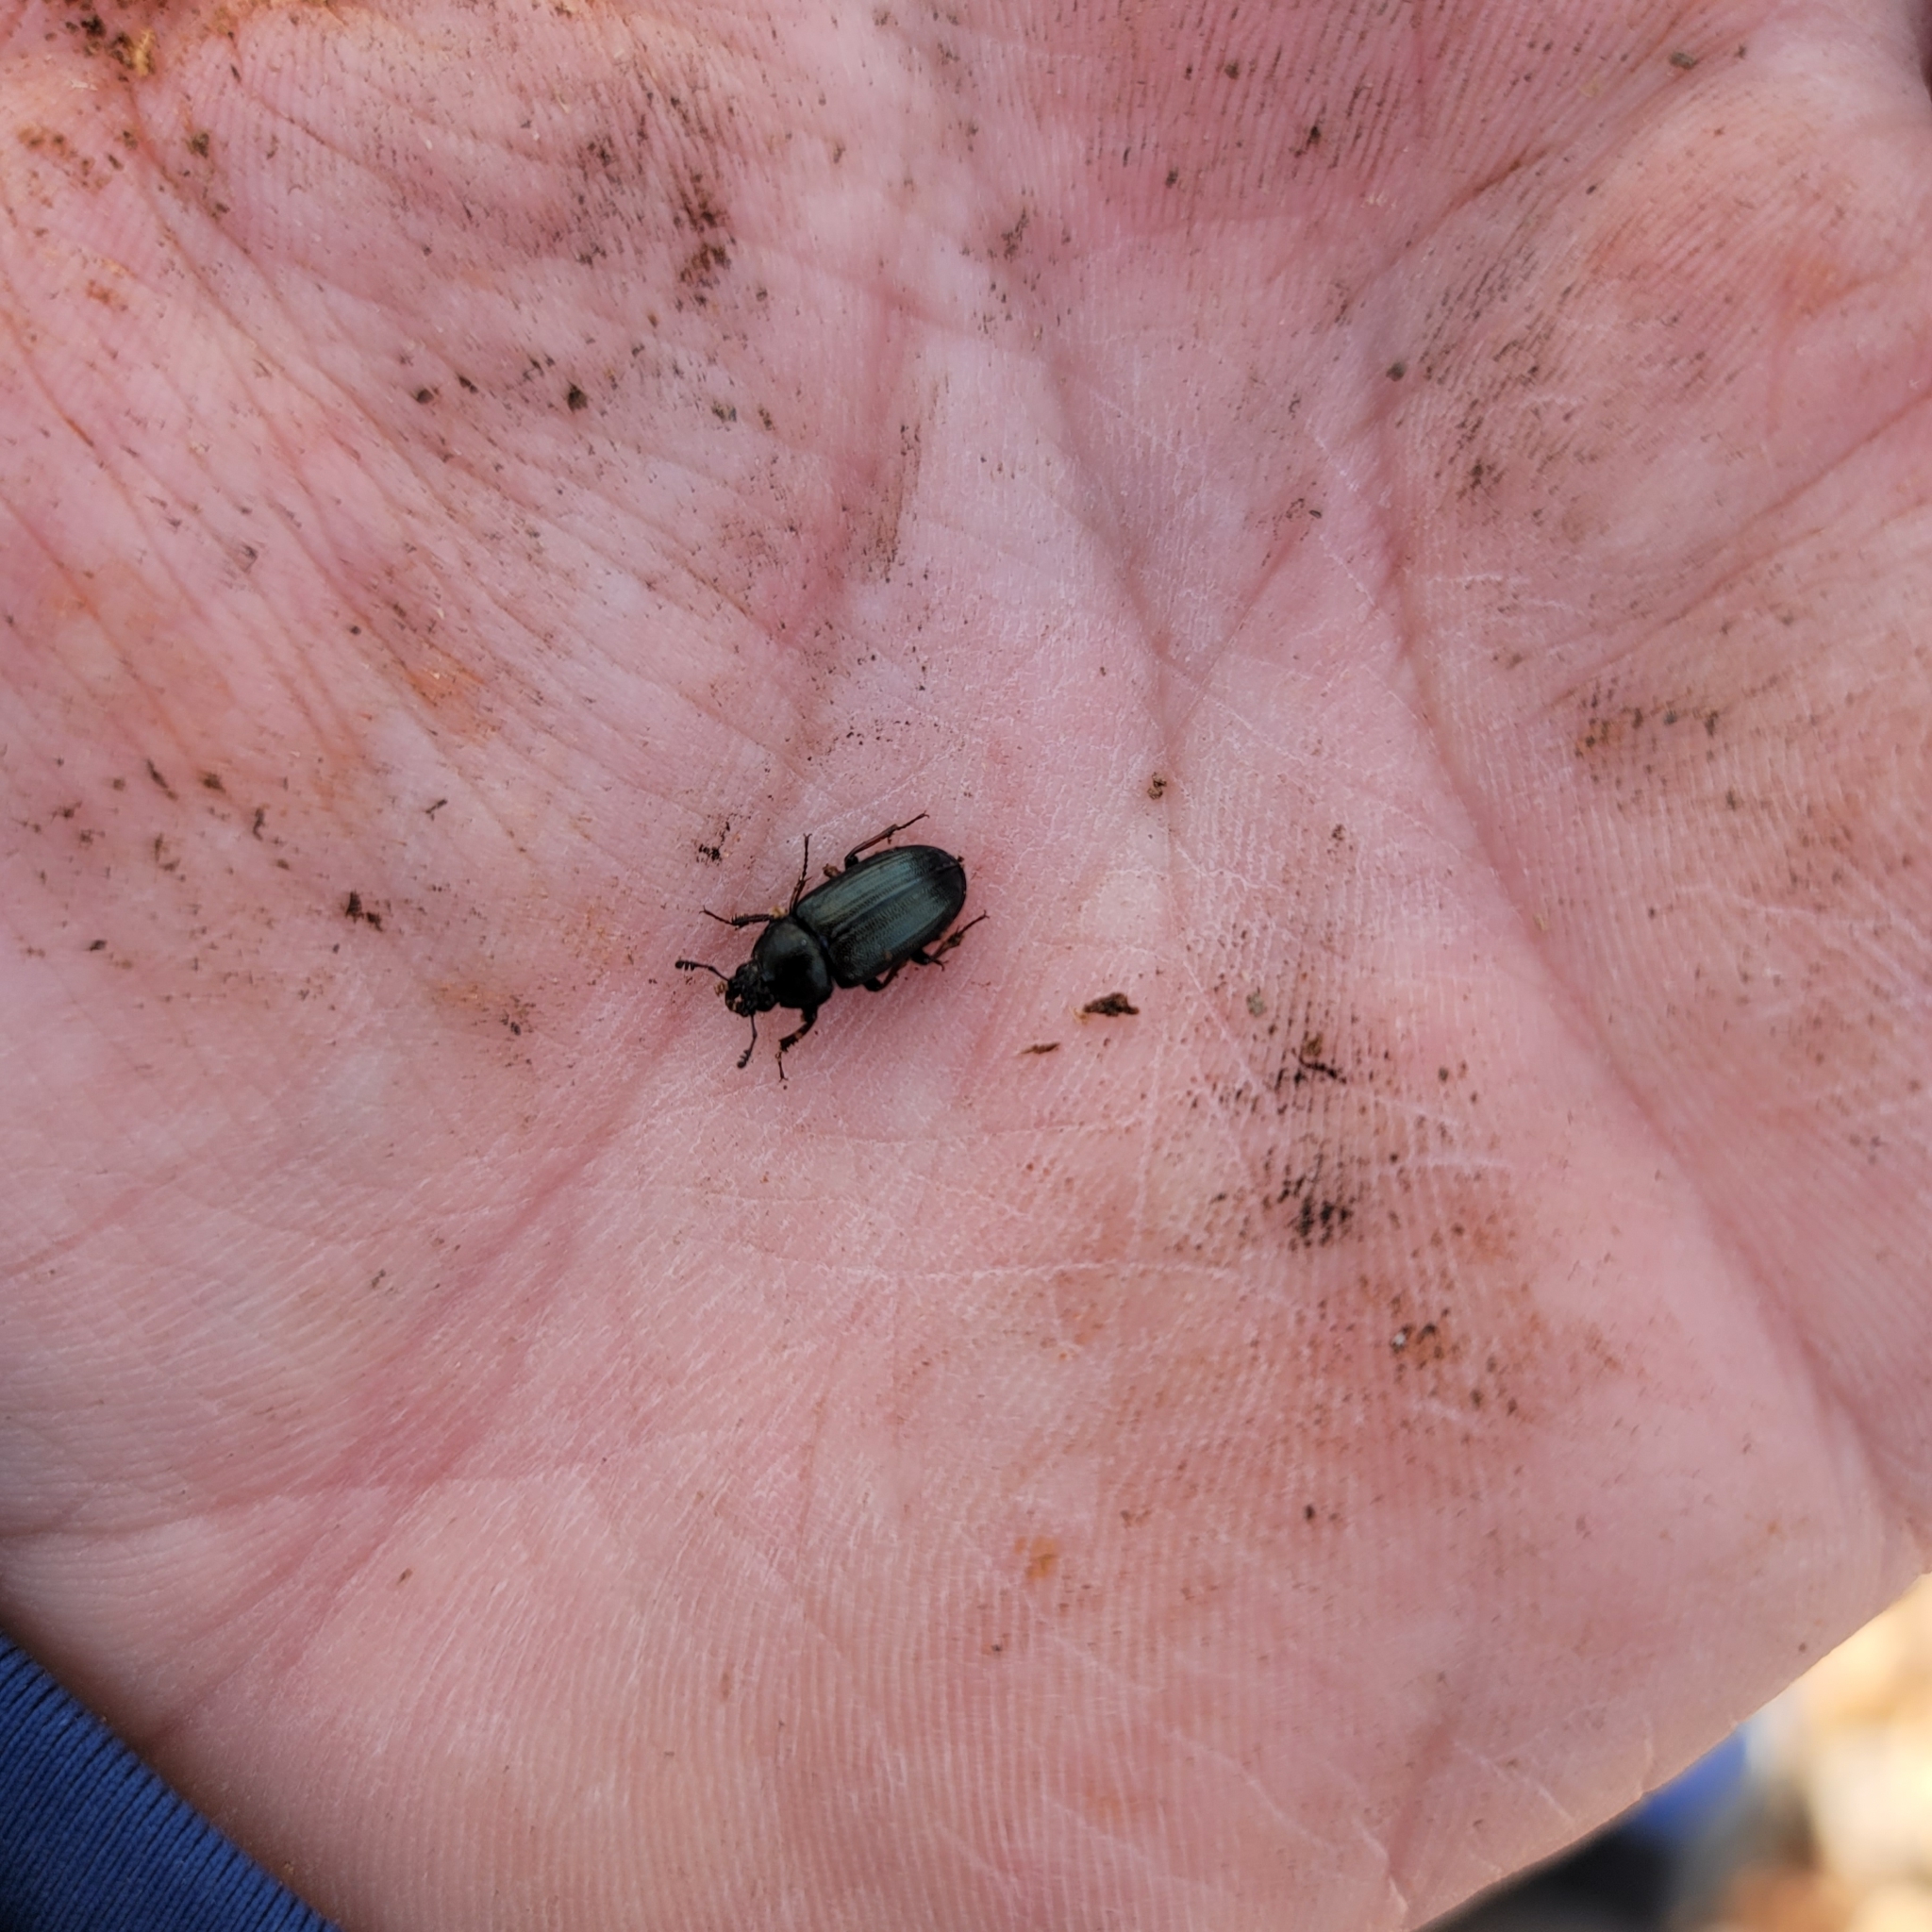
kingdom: Animalia
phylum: Arthropoda
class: Insecta
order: Coleoptera
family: Lucanidae
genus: Platycerus
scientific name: Platycerus quercus
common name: Oak stag beetle
